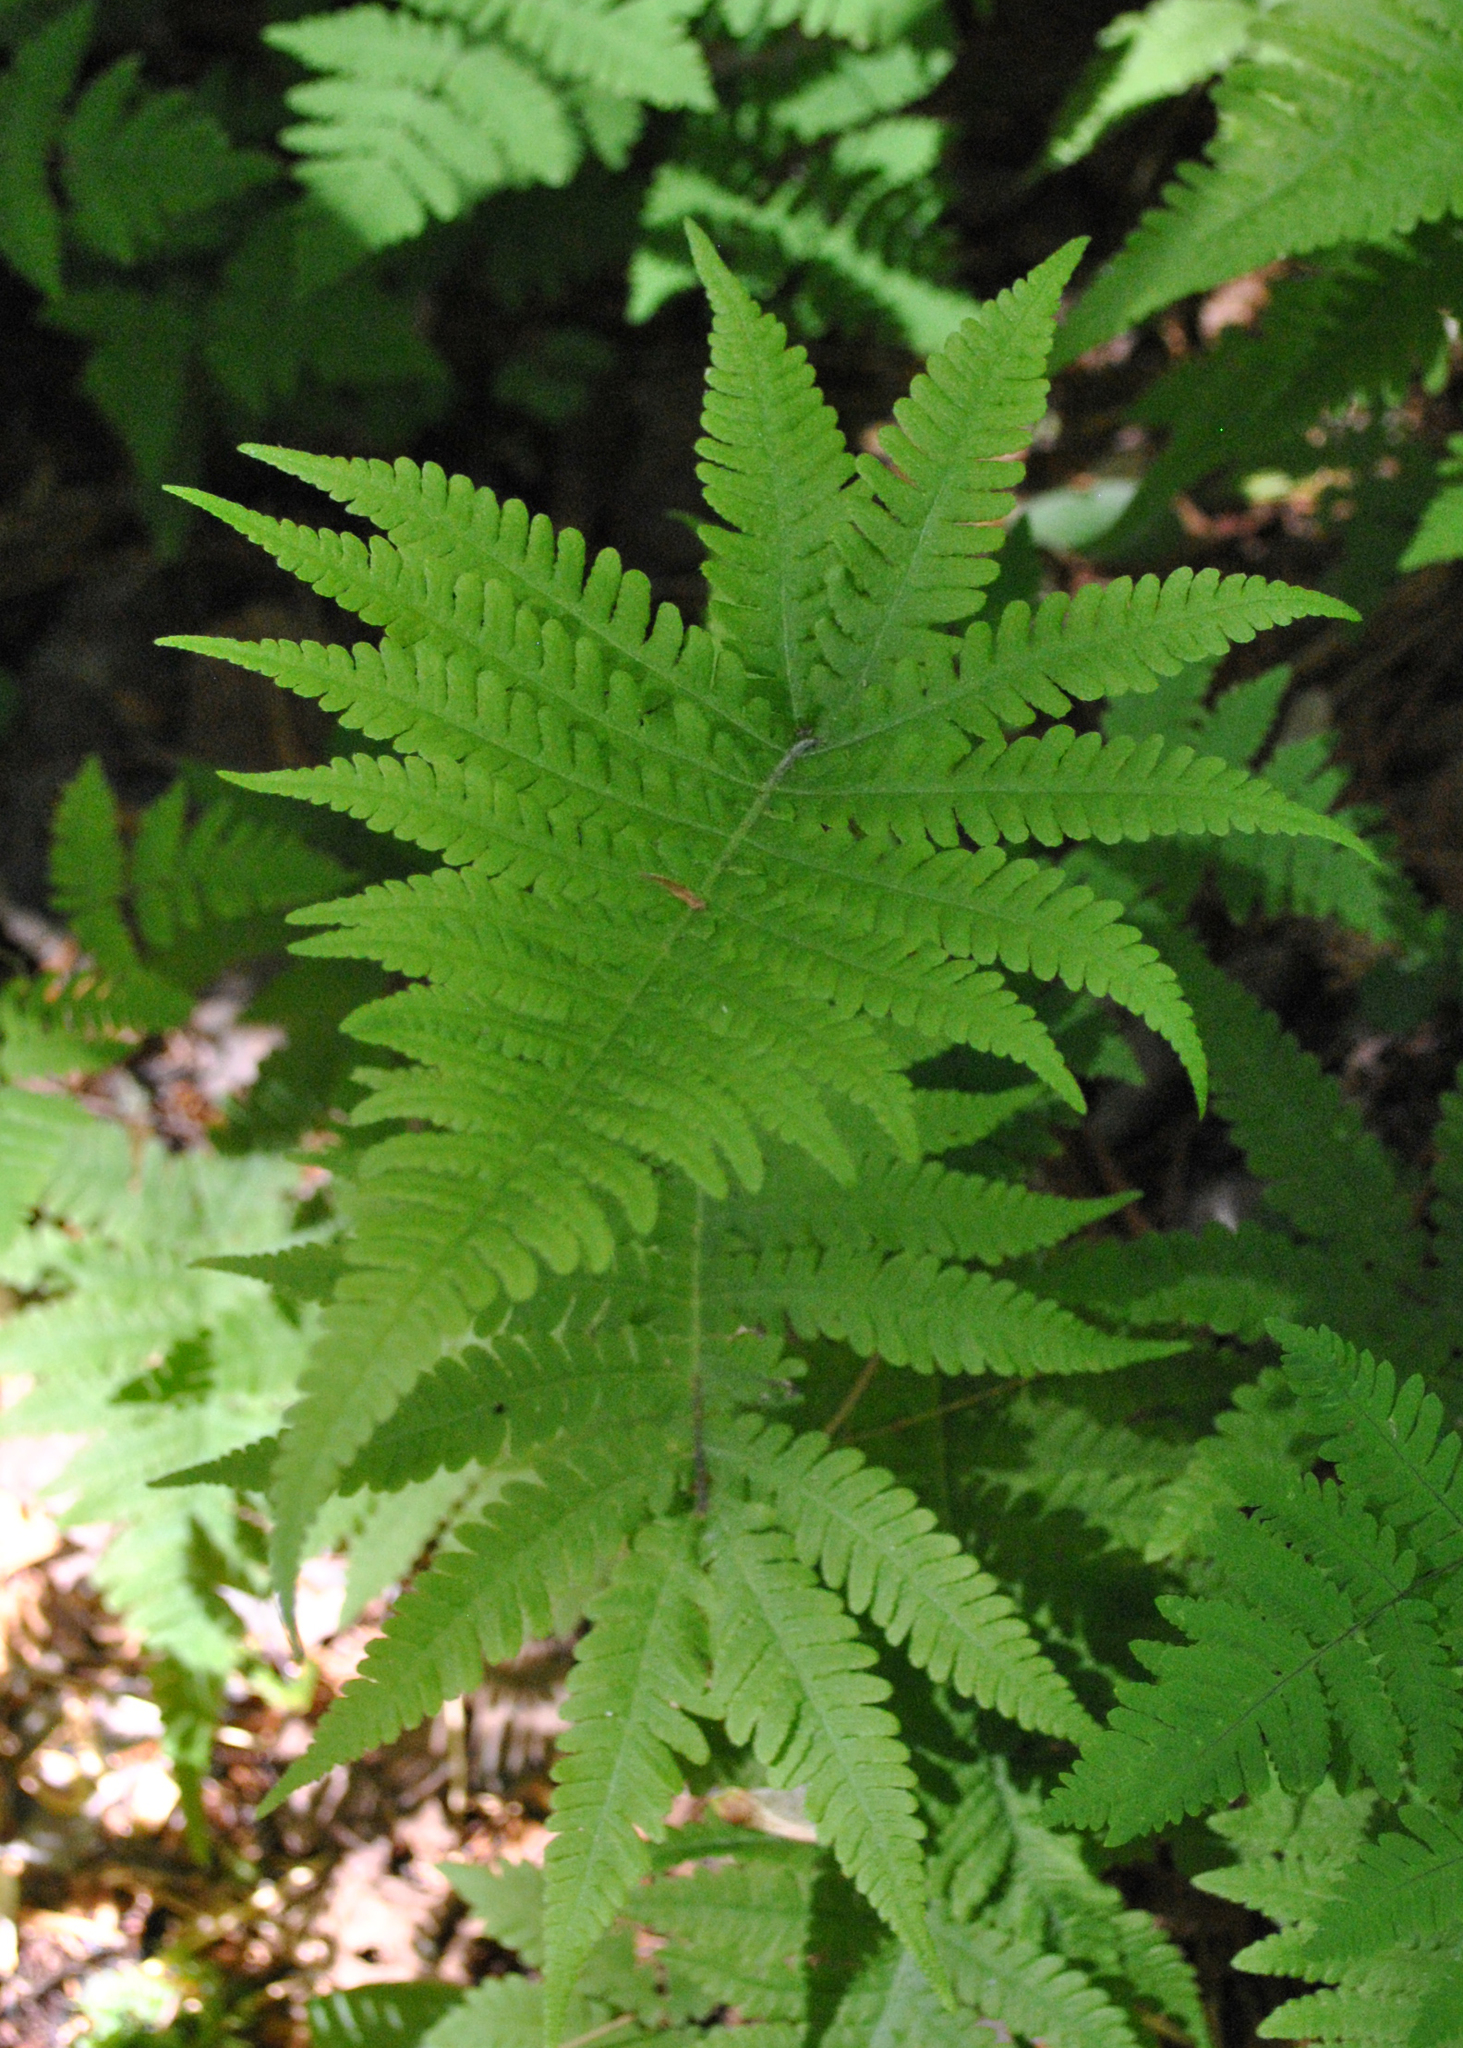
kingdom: Plantae
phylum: Tracheophyta
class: Polypodiopsida
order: Polypodiales
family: Thelypteridaceae
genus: Phegopteris
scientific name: Phegopteris connectilis
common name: Beech fern
